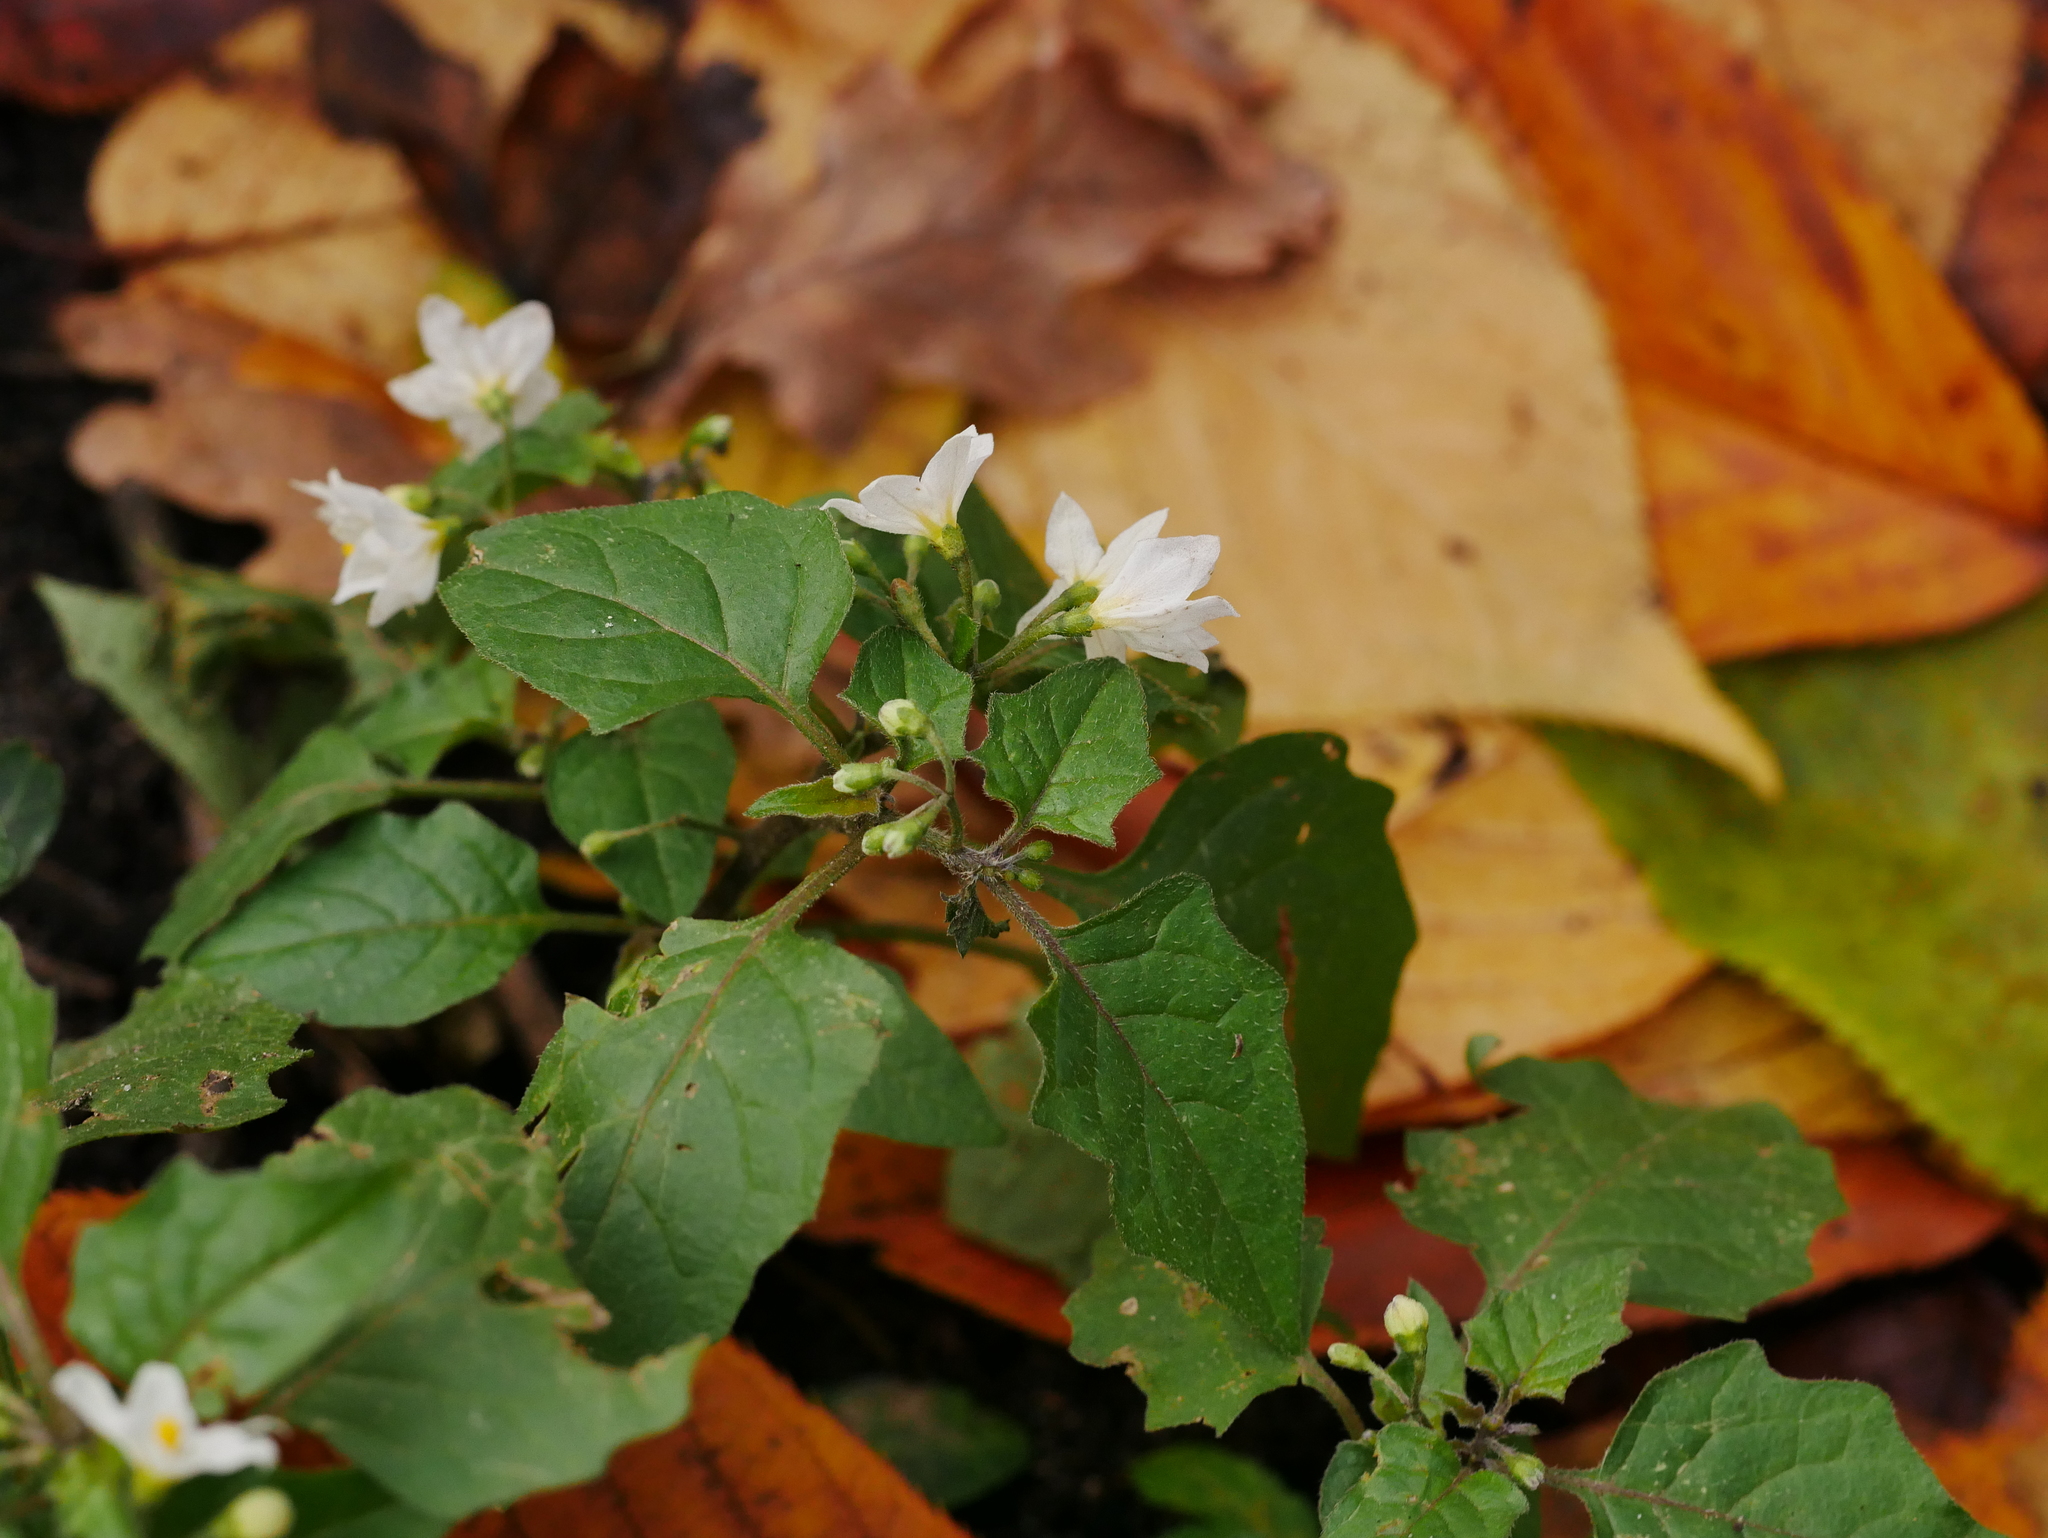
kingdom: Plantae
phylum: Tracheophyta
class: Magnoliopsida
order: Solanales
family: Solanaceae
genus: Solanum
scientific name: Solanum nigrum
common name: Black nightshade
